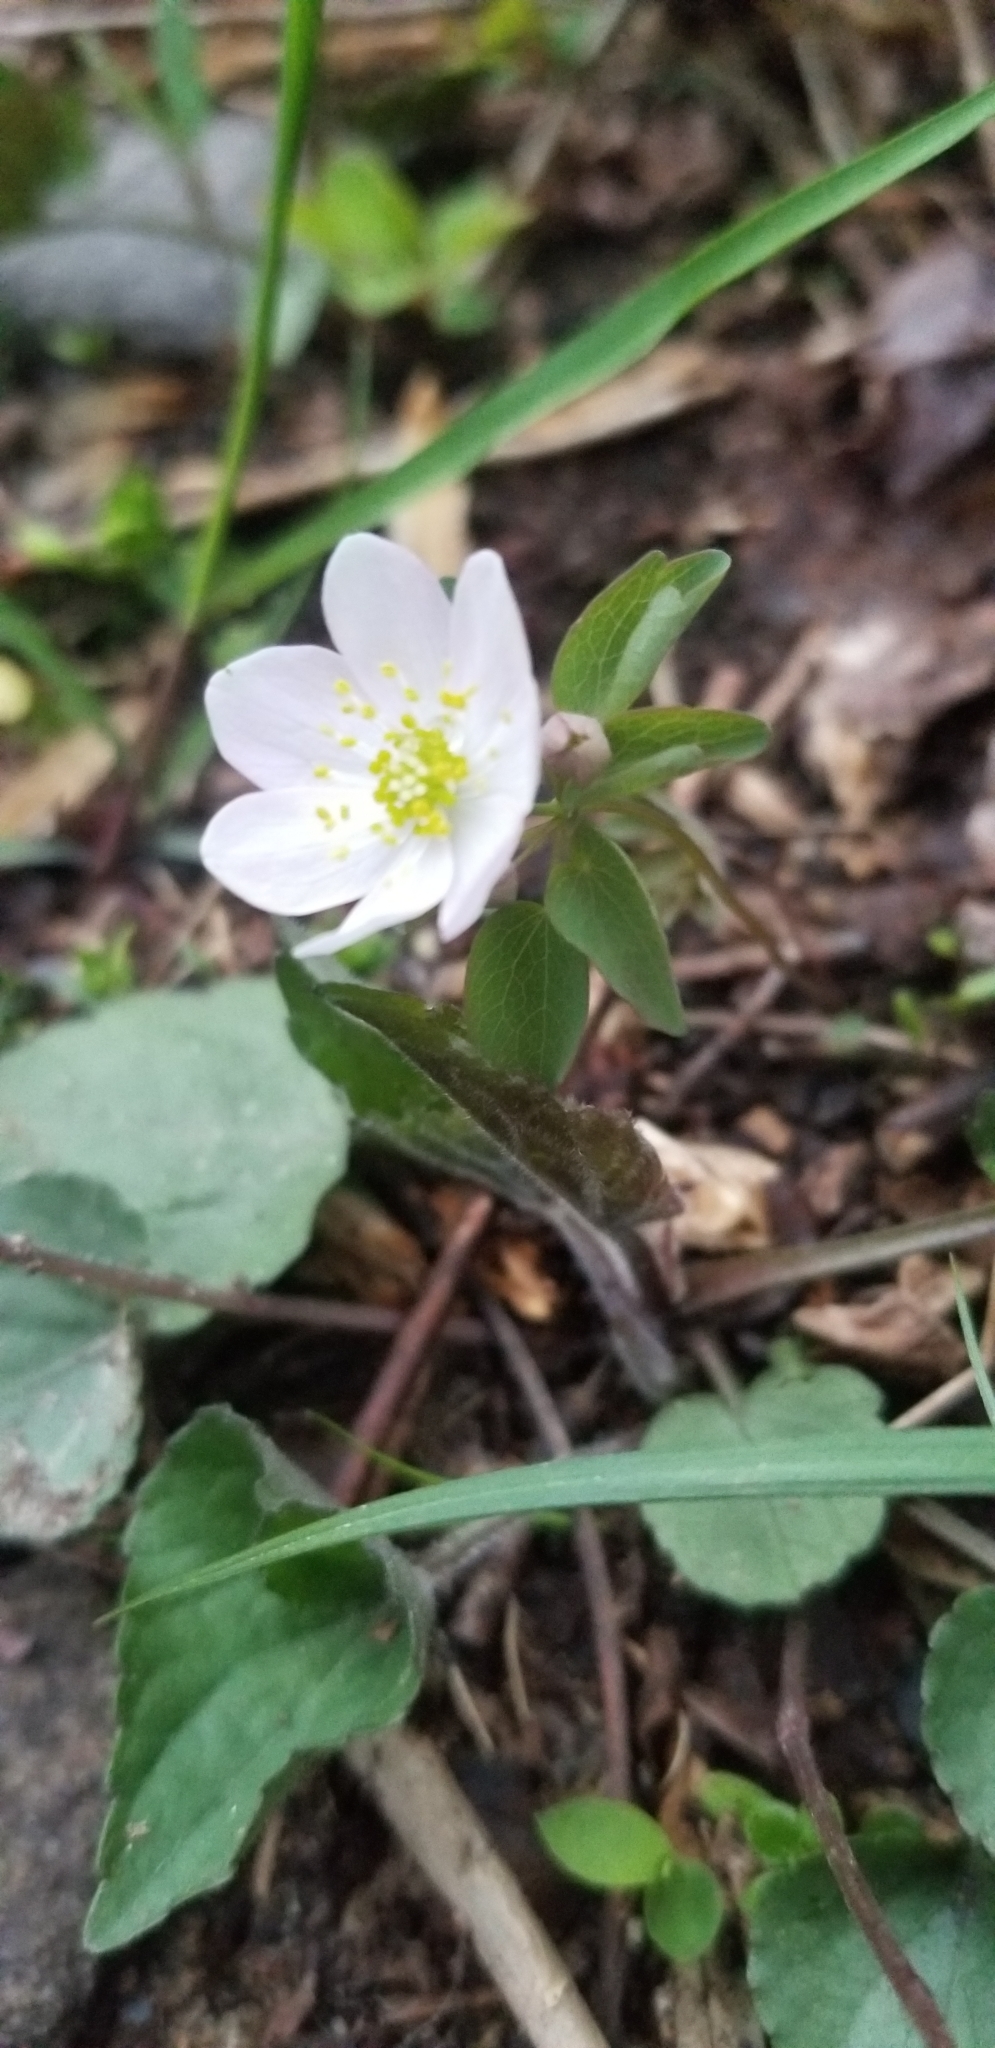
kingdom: Plantae
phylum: Tracheophyta
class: Magnoliopsida
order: Ranunculales
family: Ranunculaceae
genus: Thalictrum
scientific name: Thalictrum thalictroides
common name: Rue-anemone
